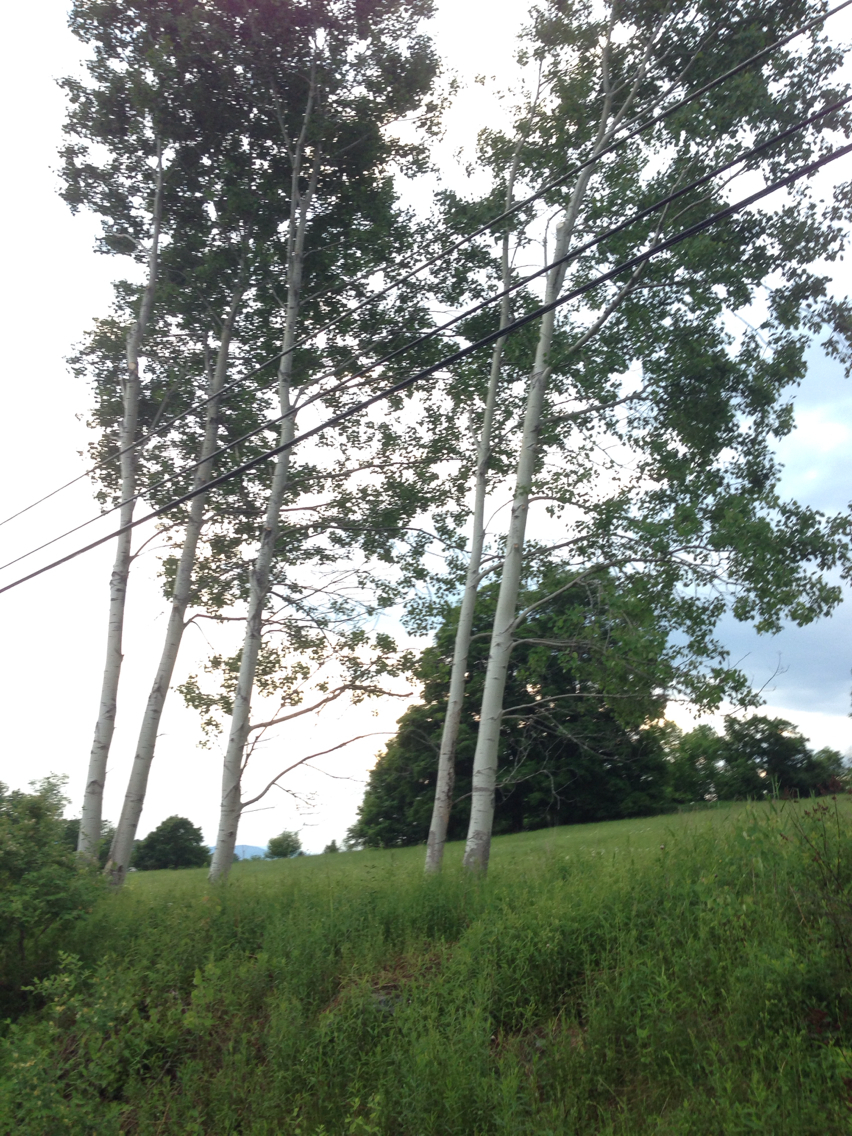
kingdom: Plantae
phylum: Tracheophyta
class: Magnoliopsida
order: Malpighiales
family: Salicaceae
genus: Populus
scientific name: Populus tremuloides
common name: Quaking aspen
